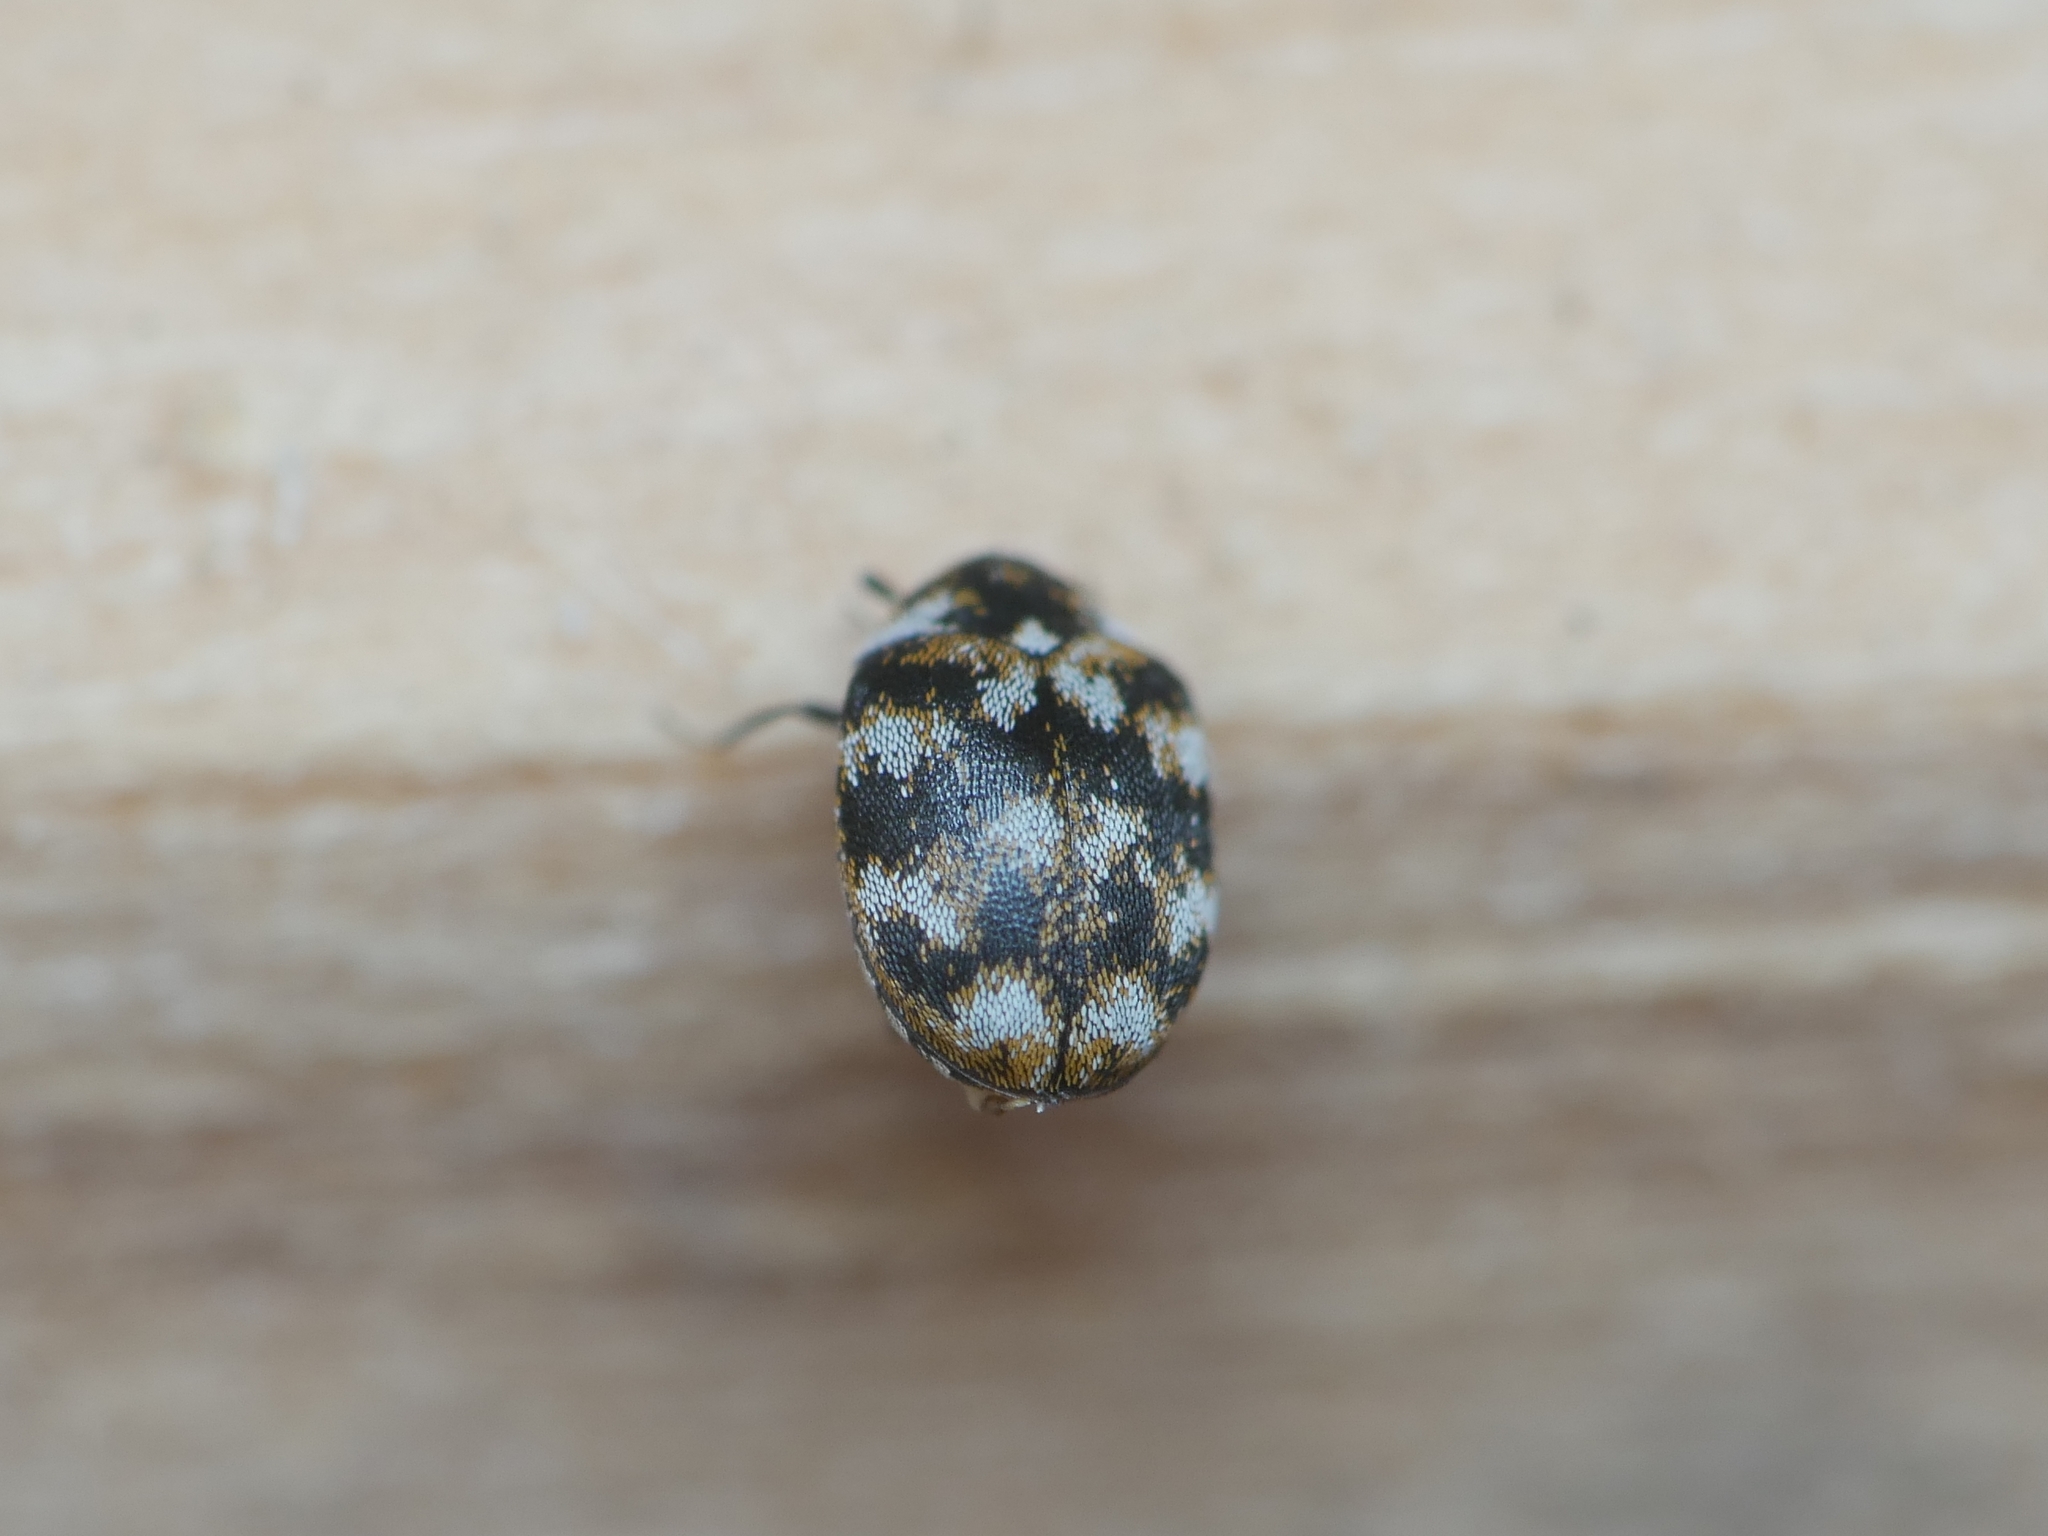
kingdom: Animalia
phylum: Arthropoda
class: Insecta
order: Coleoptera
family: Dermestidae
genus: Anthrenus
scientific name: Anthrenus verbasci
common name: Varied carpet beetle
